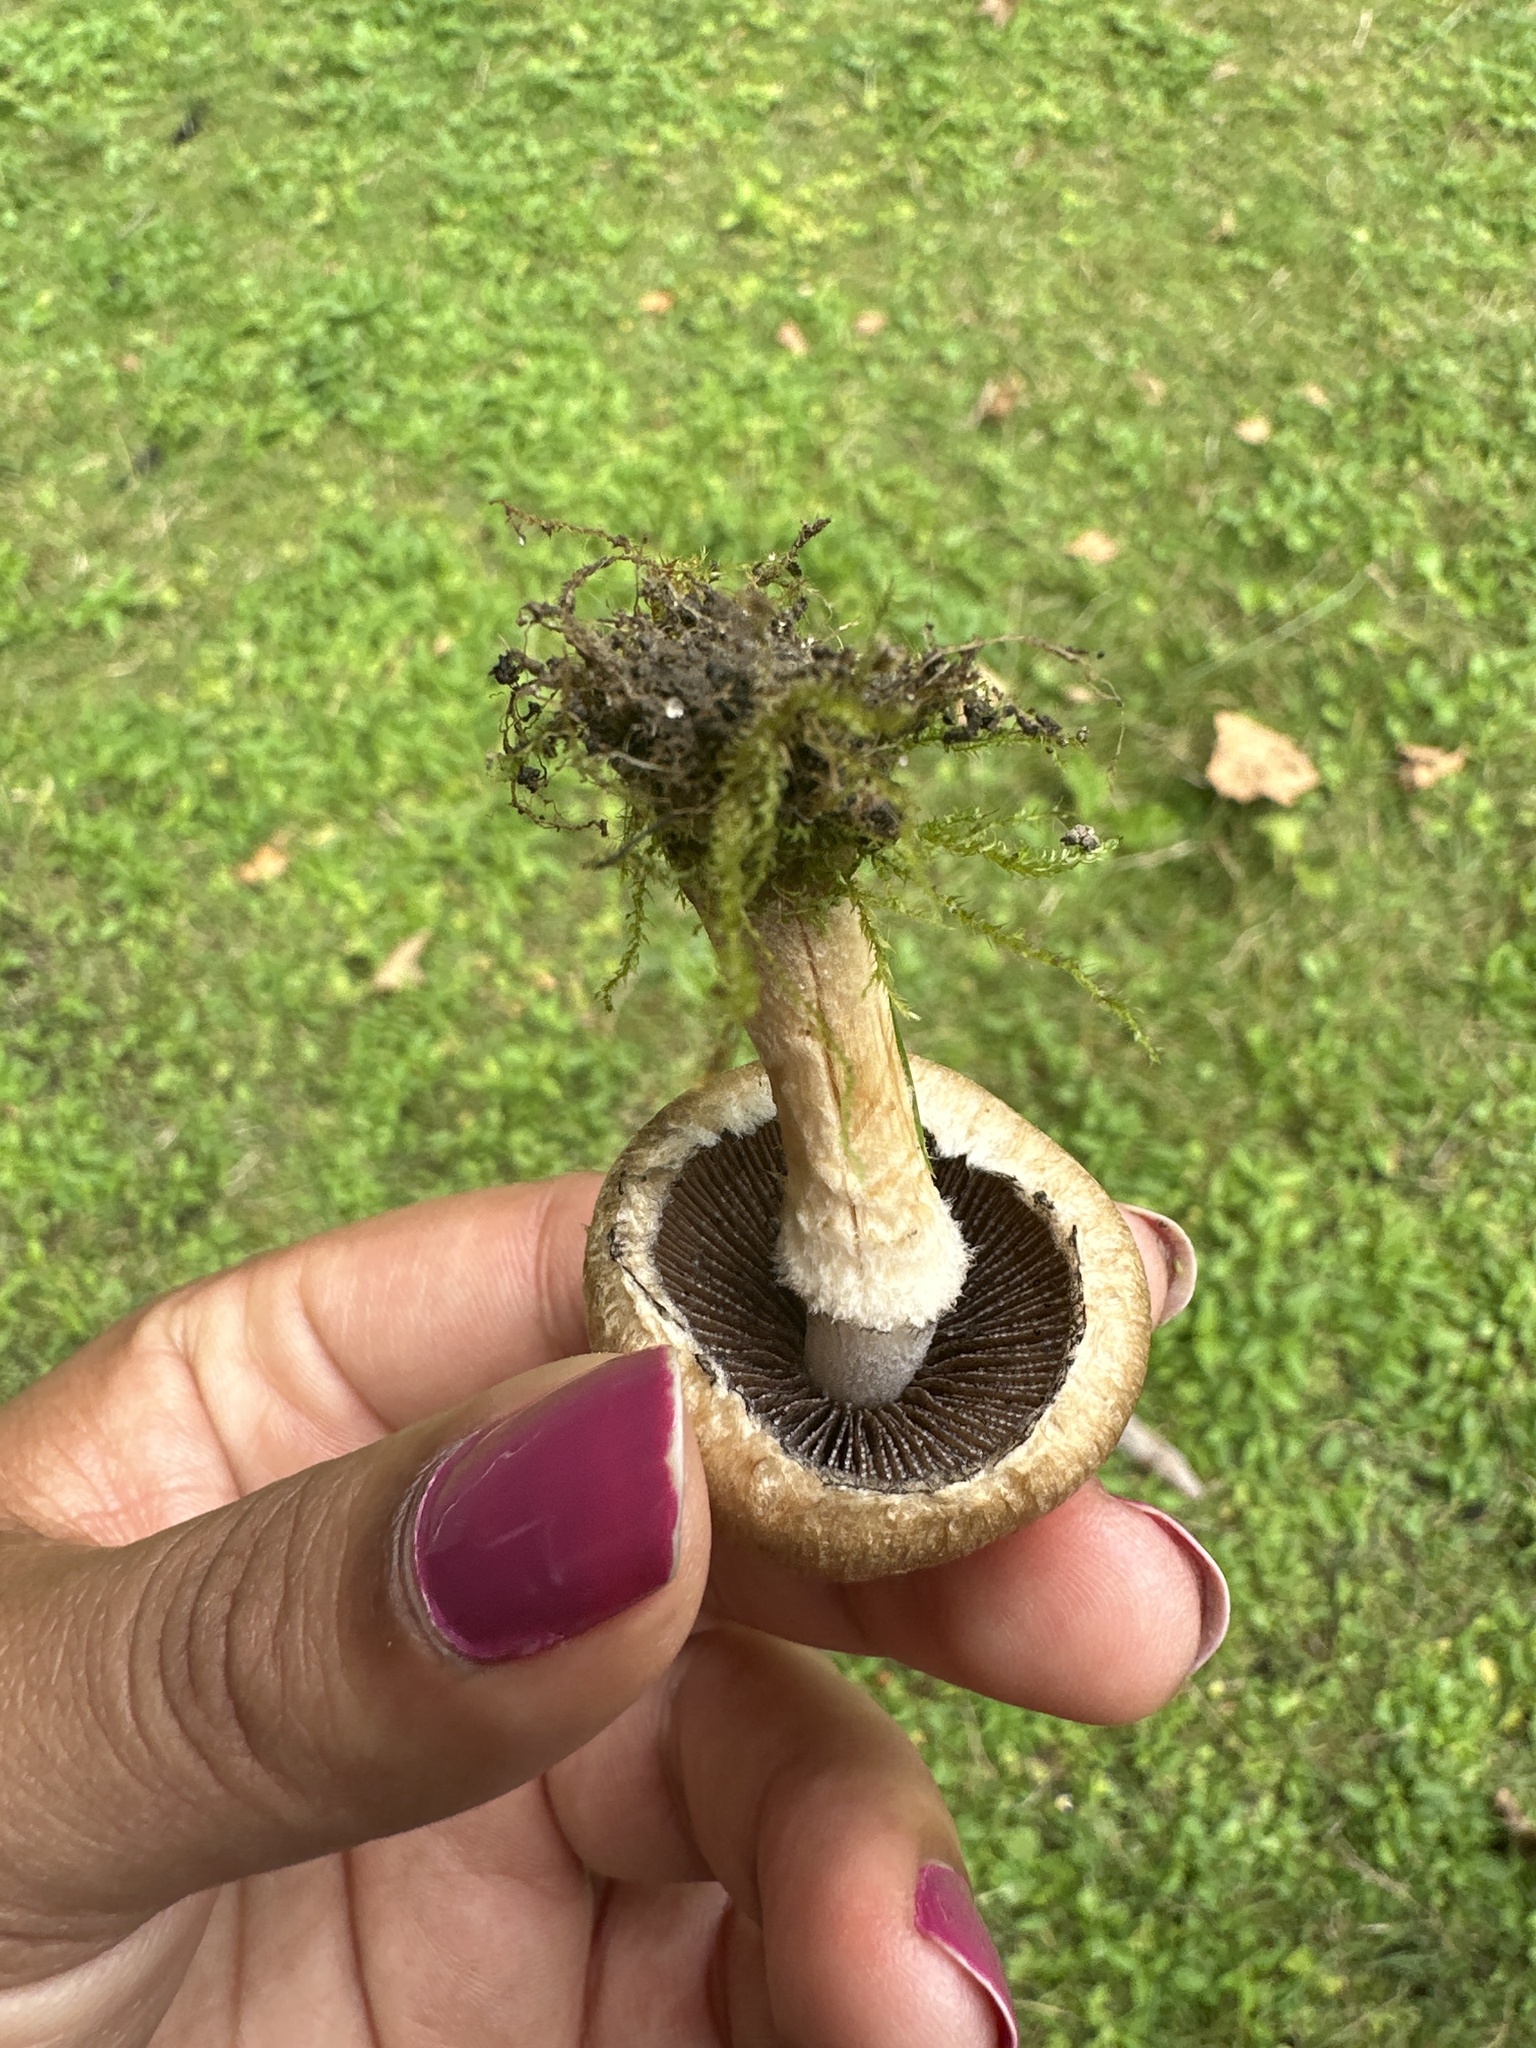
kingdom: Fungi
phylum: Basidiomycota
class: Agaricomycetes
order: Agaricales
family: Psathyrellaceae
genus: Lacrymaria
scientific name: Lacrymaria lacrymabunda
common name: Weeping widow
